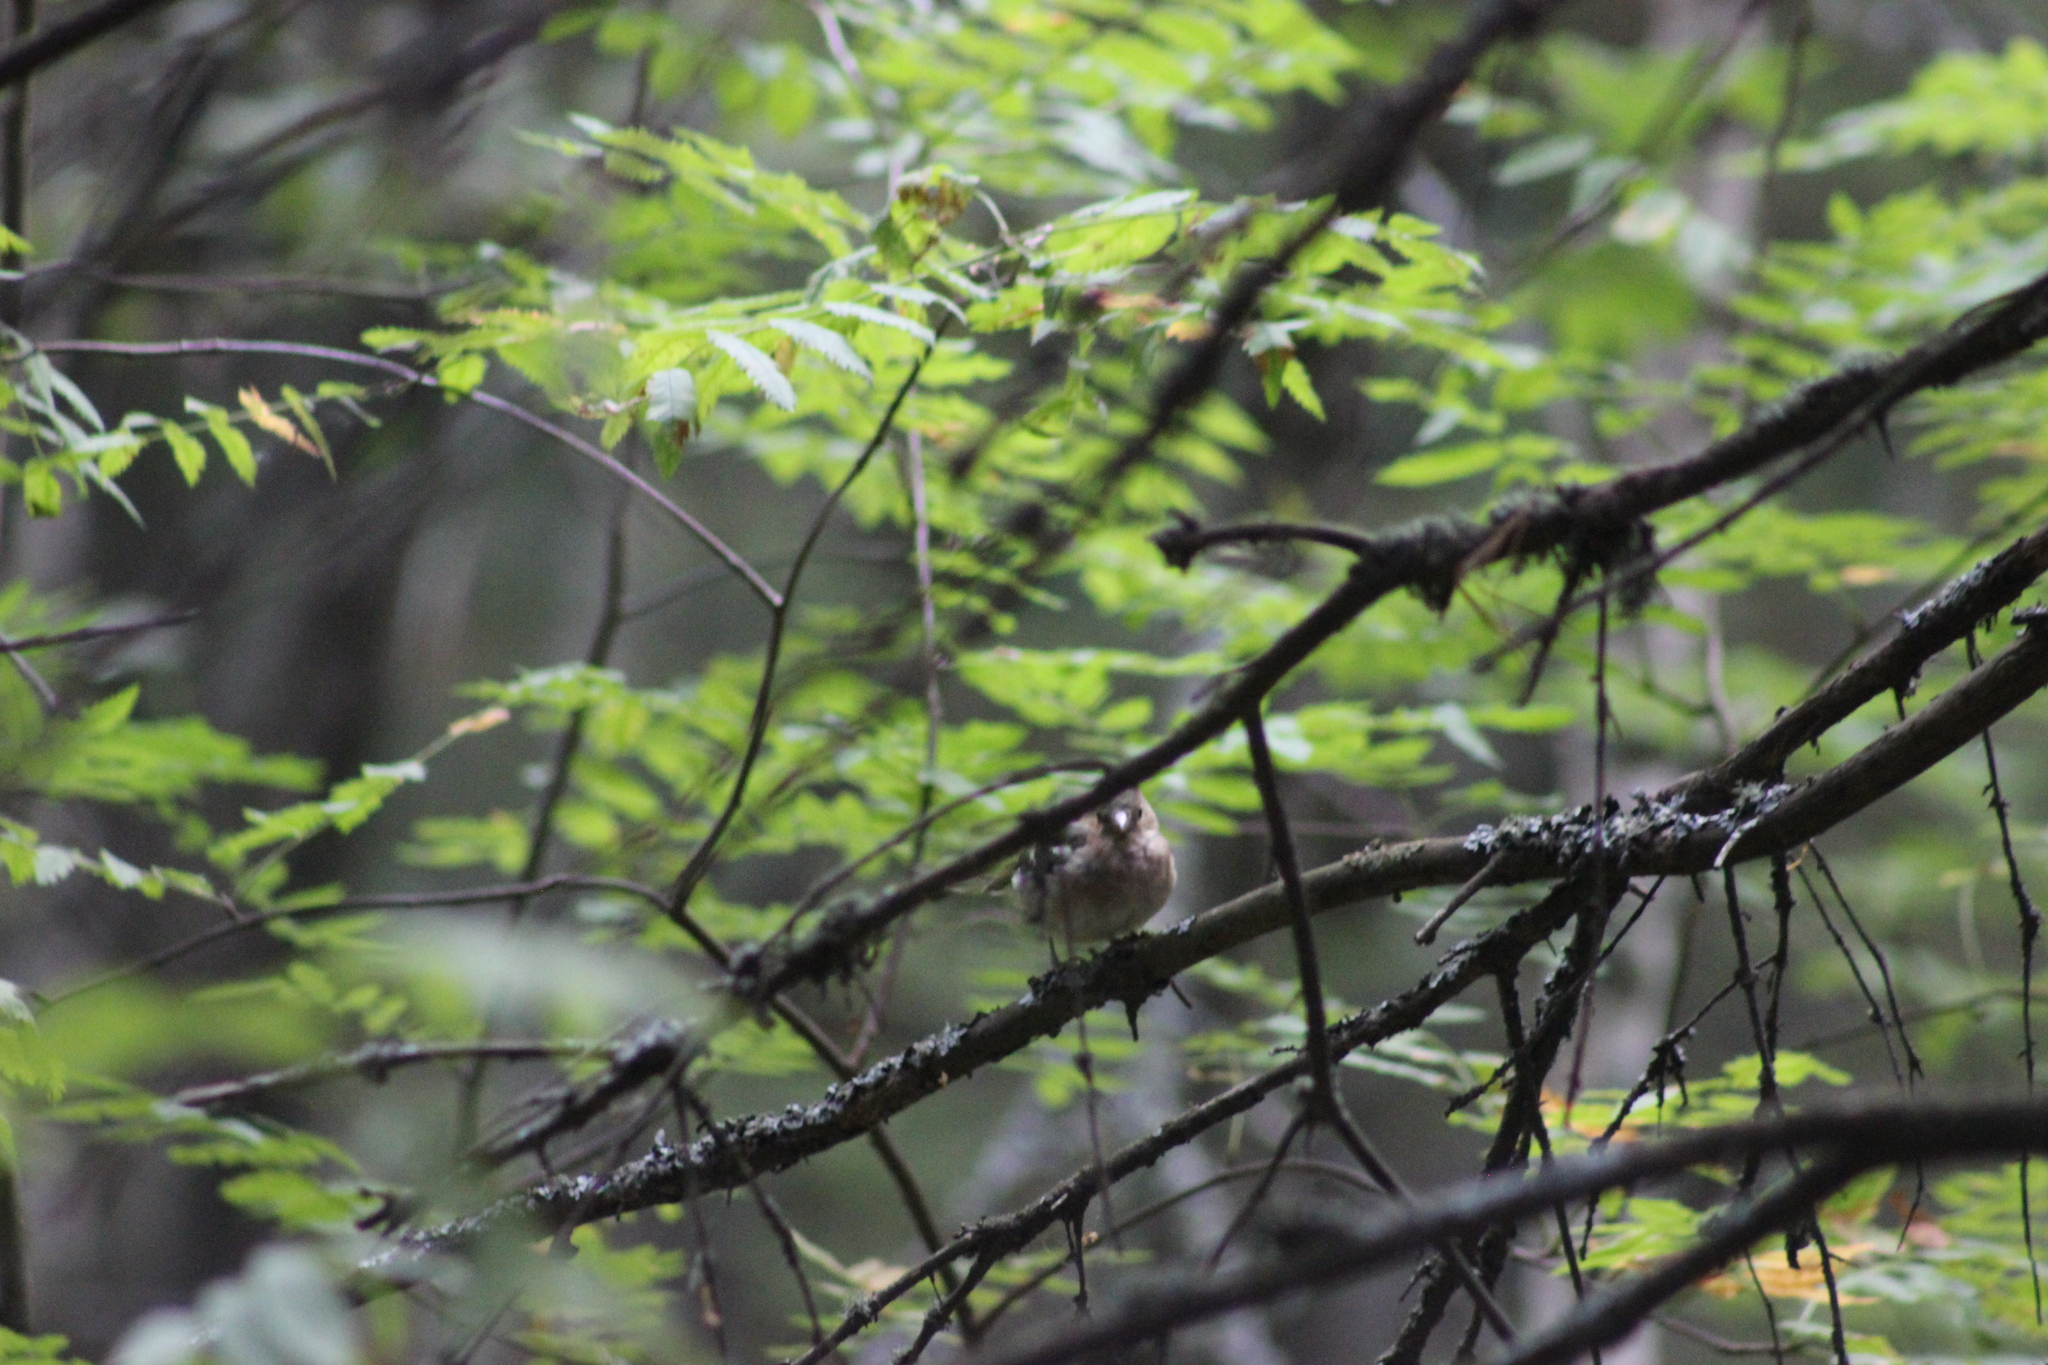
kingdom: Animalia
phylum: Chordata
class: Aves
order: Passeriformes
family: Fringillidae
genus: Fringilla
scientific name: Fringilla coelebs
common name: Common chaffinch
